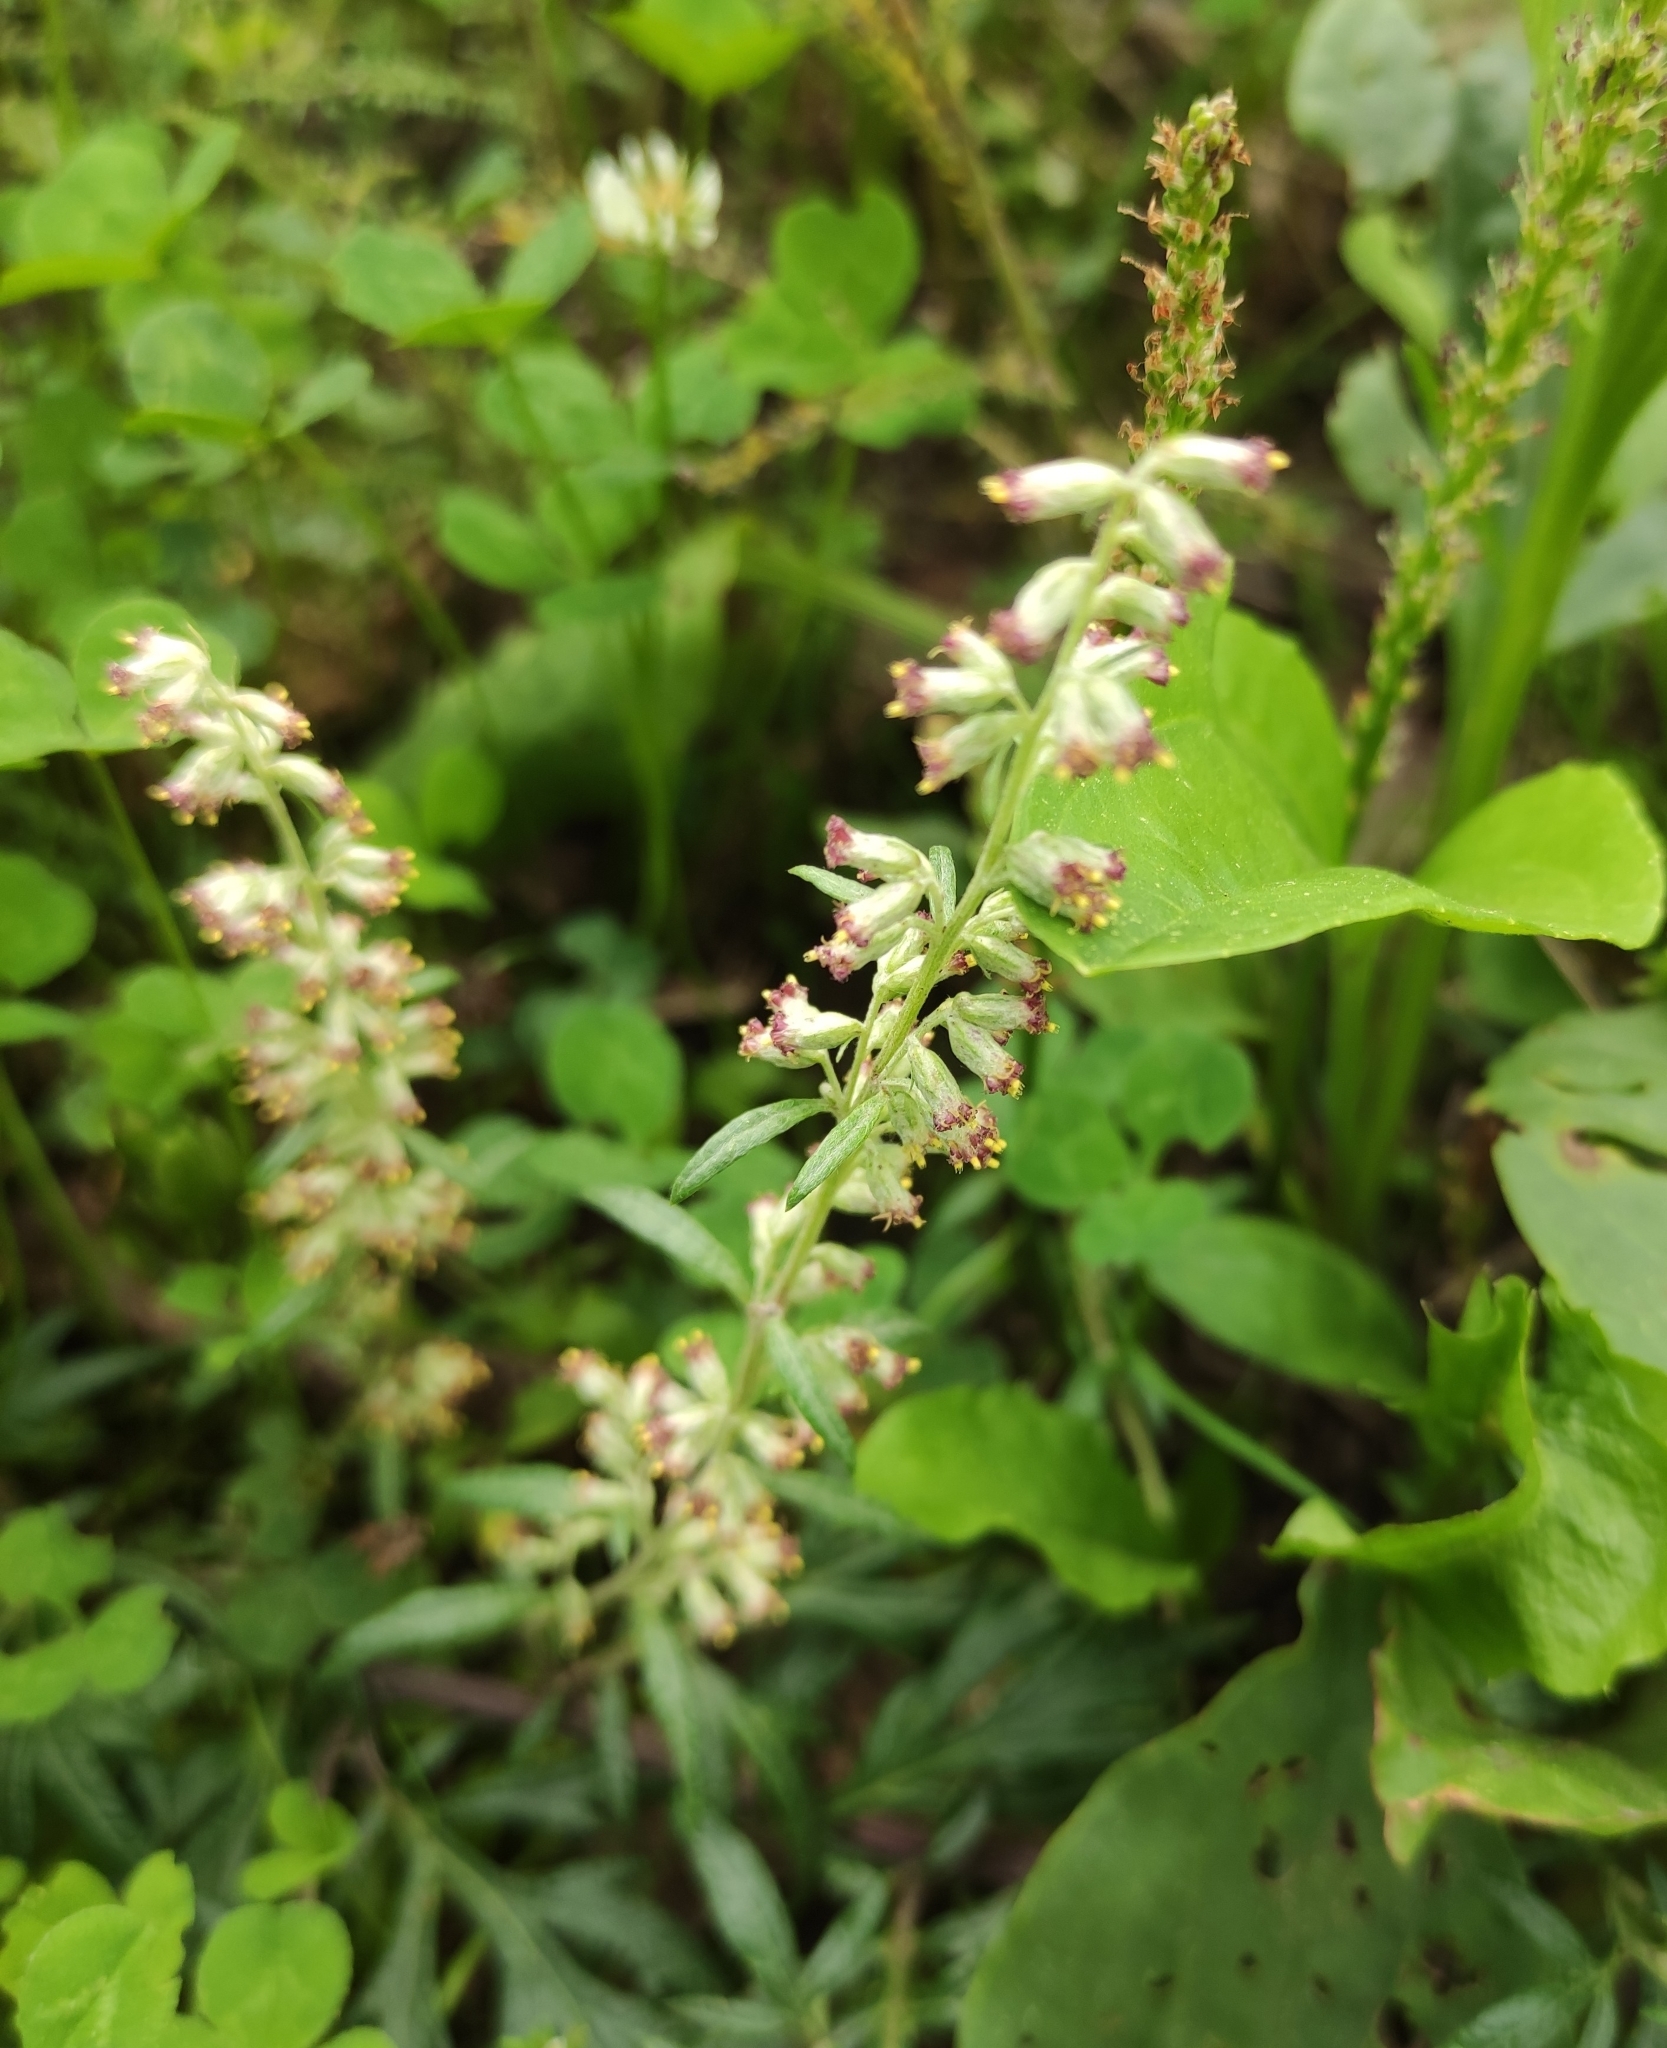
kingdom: Plantae
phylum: Tracheophyta
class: Magnoliopsida
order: Asterales
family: Asteraceae
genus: Artemisia
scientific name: Artemisia vulgaris
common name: Mugwort
